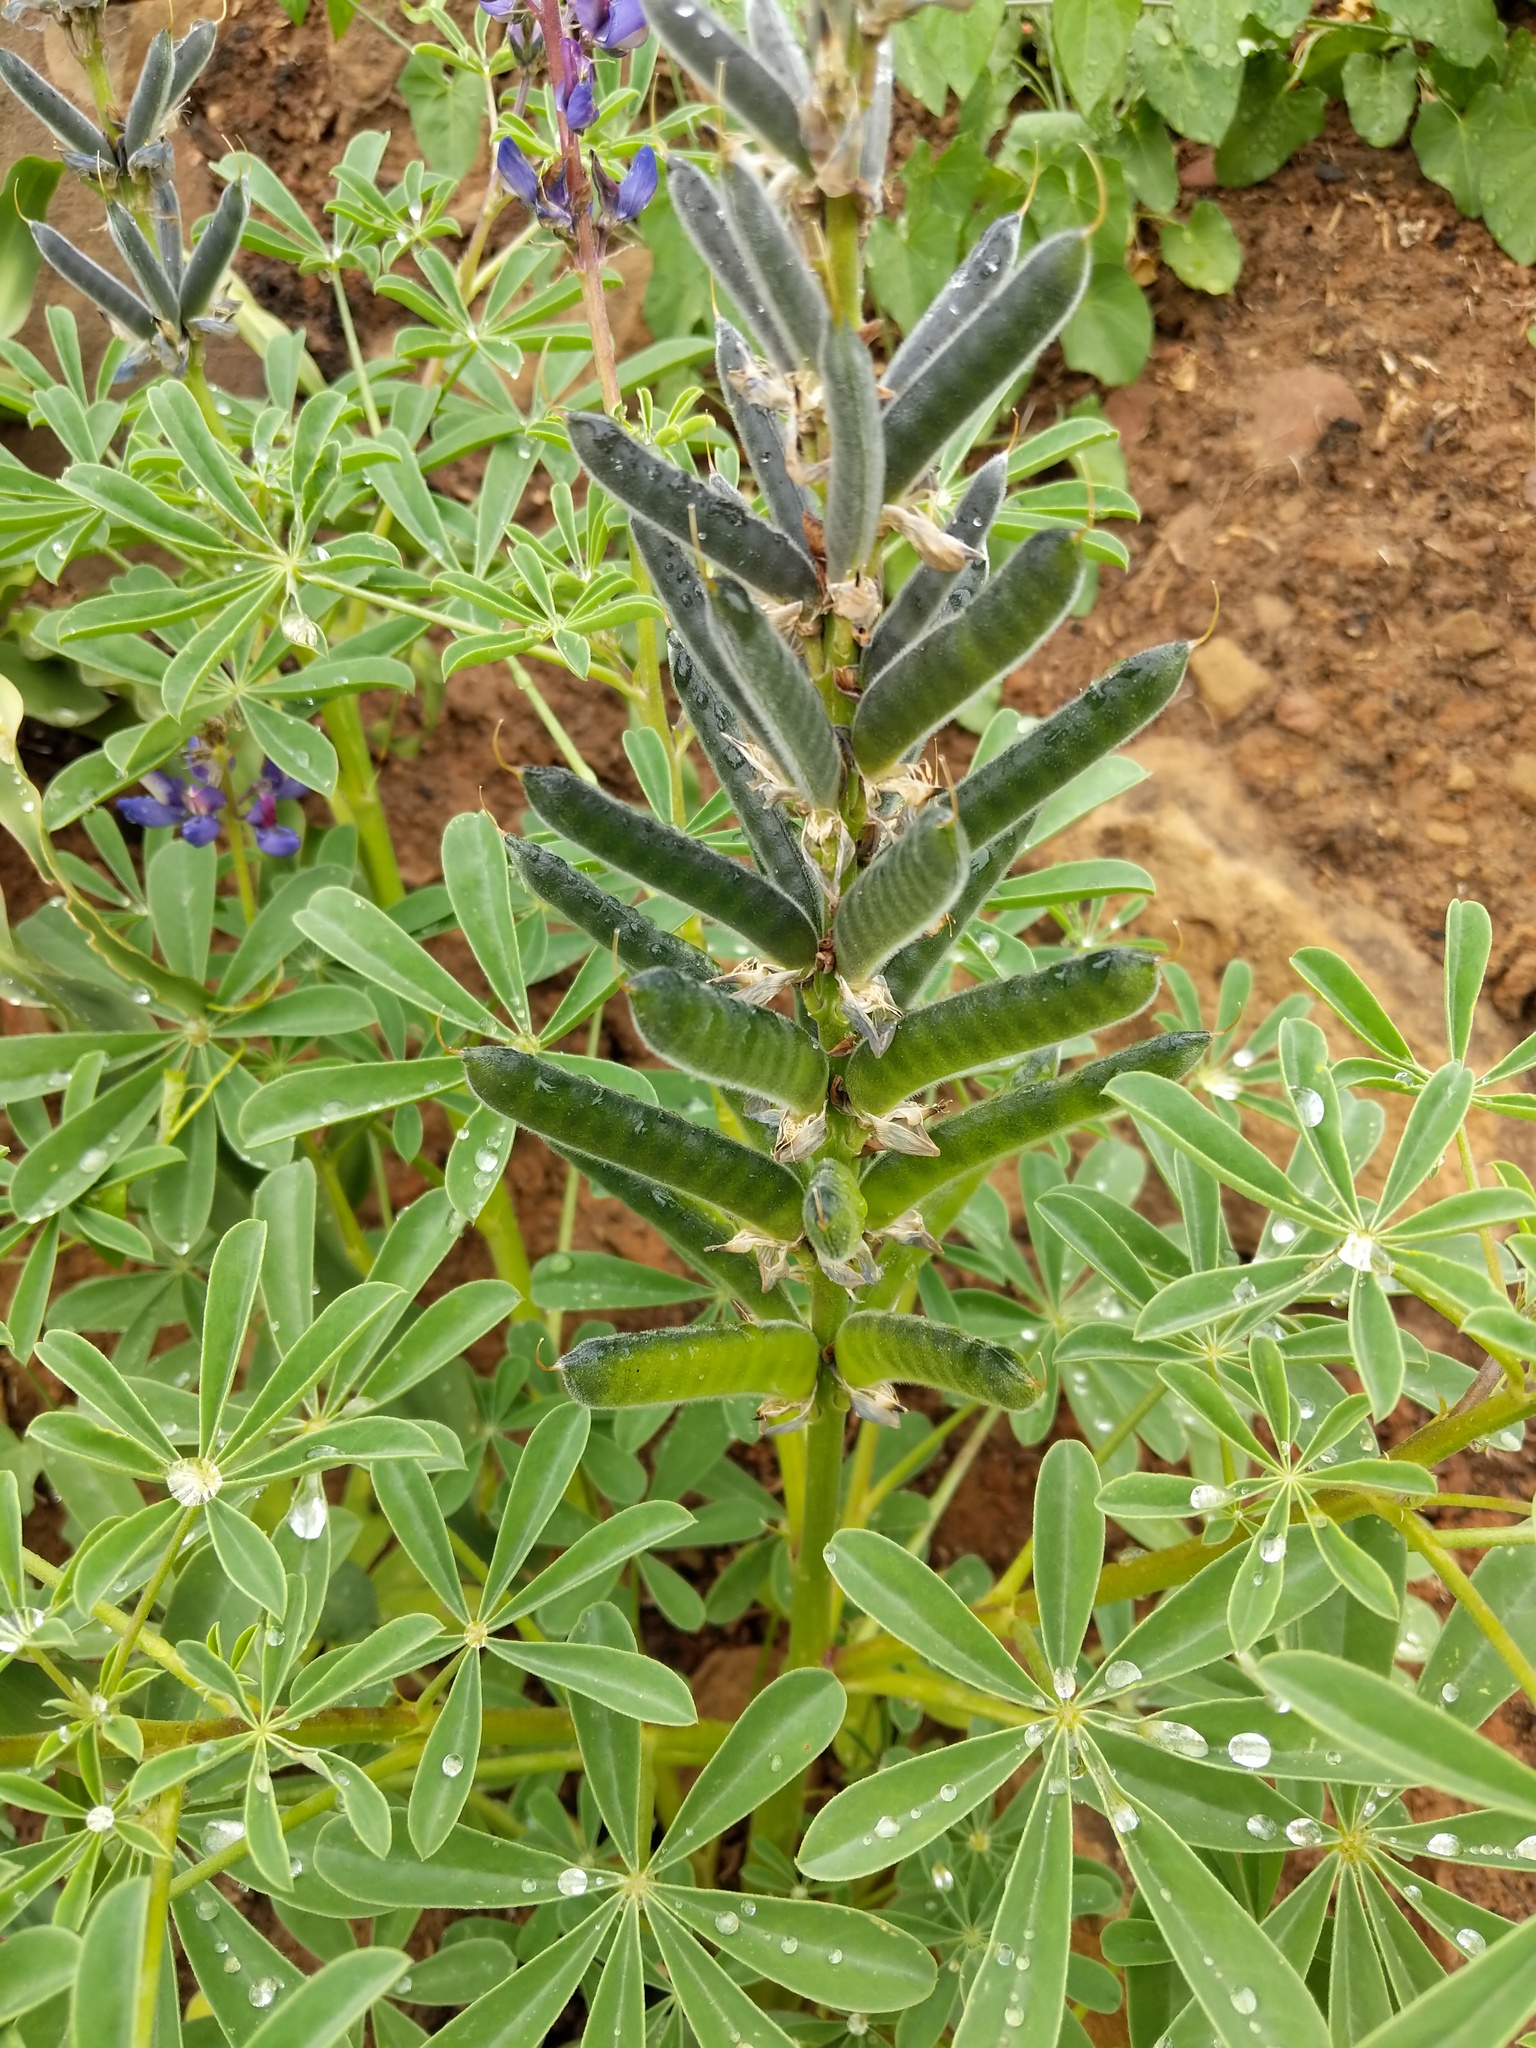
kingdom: Plantae
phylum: Tracheophyta
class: Magnoliopsida
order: Fabales
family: Fabaceae
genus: Lupinus
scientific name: Lupinus succulentus
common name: Arroyo lupine
